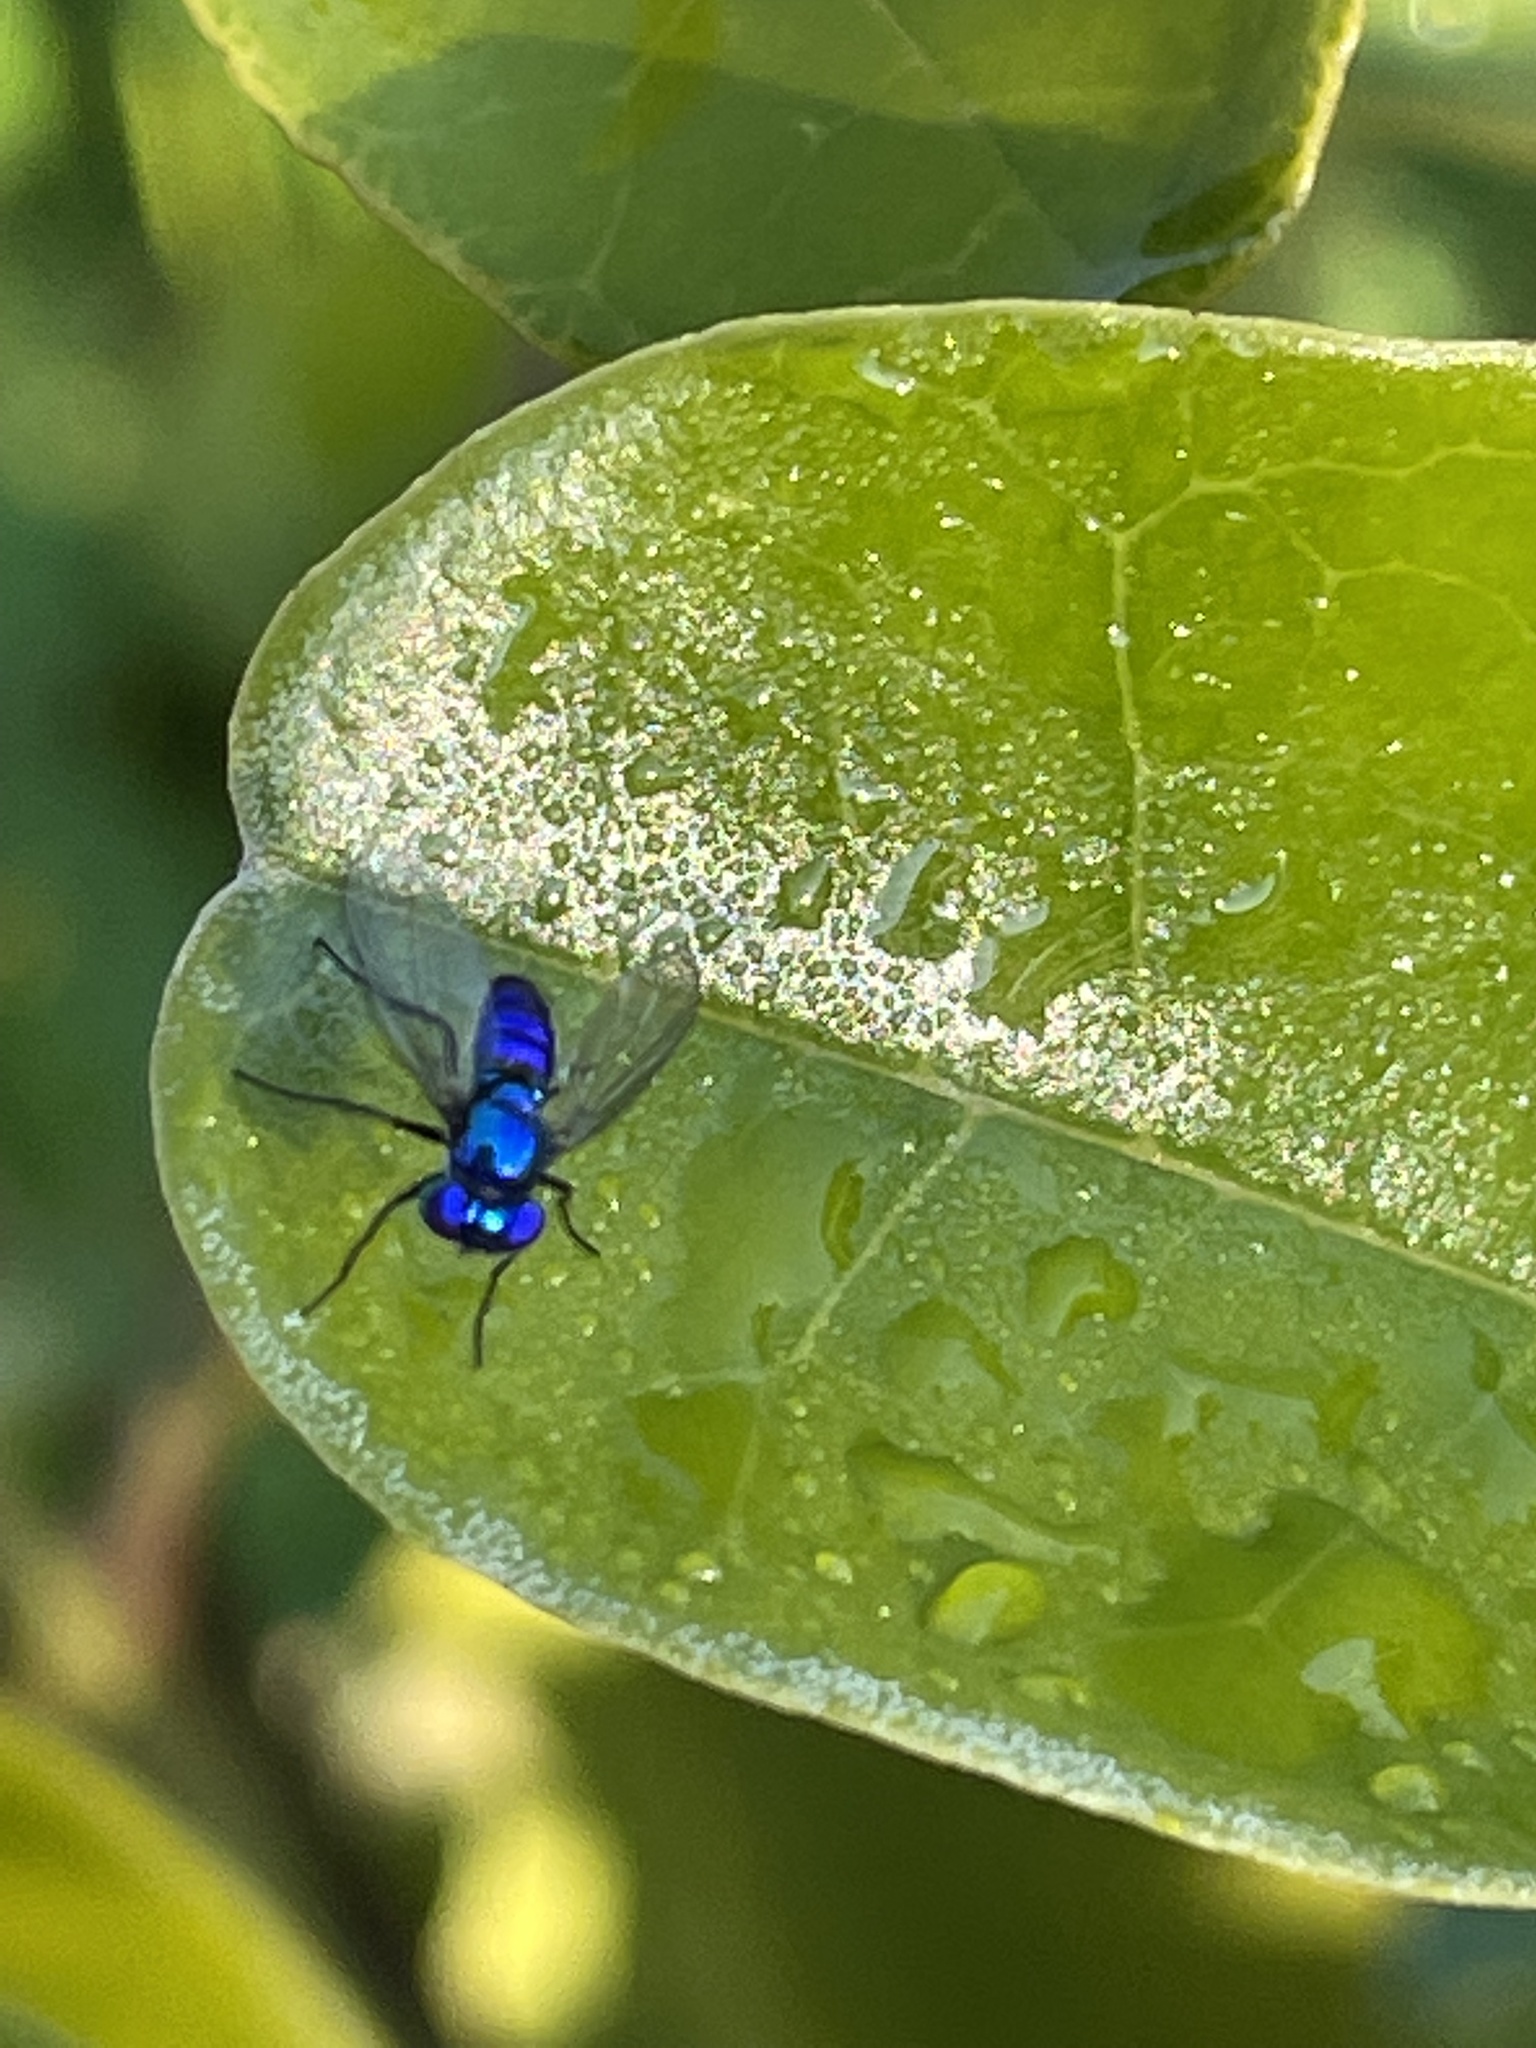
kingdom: Animalia
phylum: Arthropoda
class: Insecta
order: Diptera
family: Dolichopodidae
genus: Condylostylus
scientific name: Condylostylus mundus
